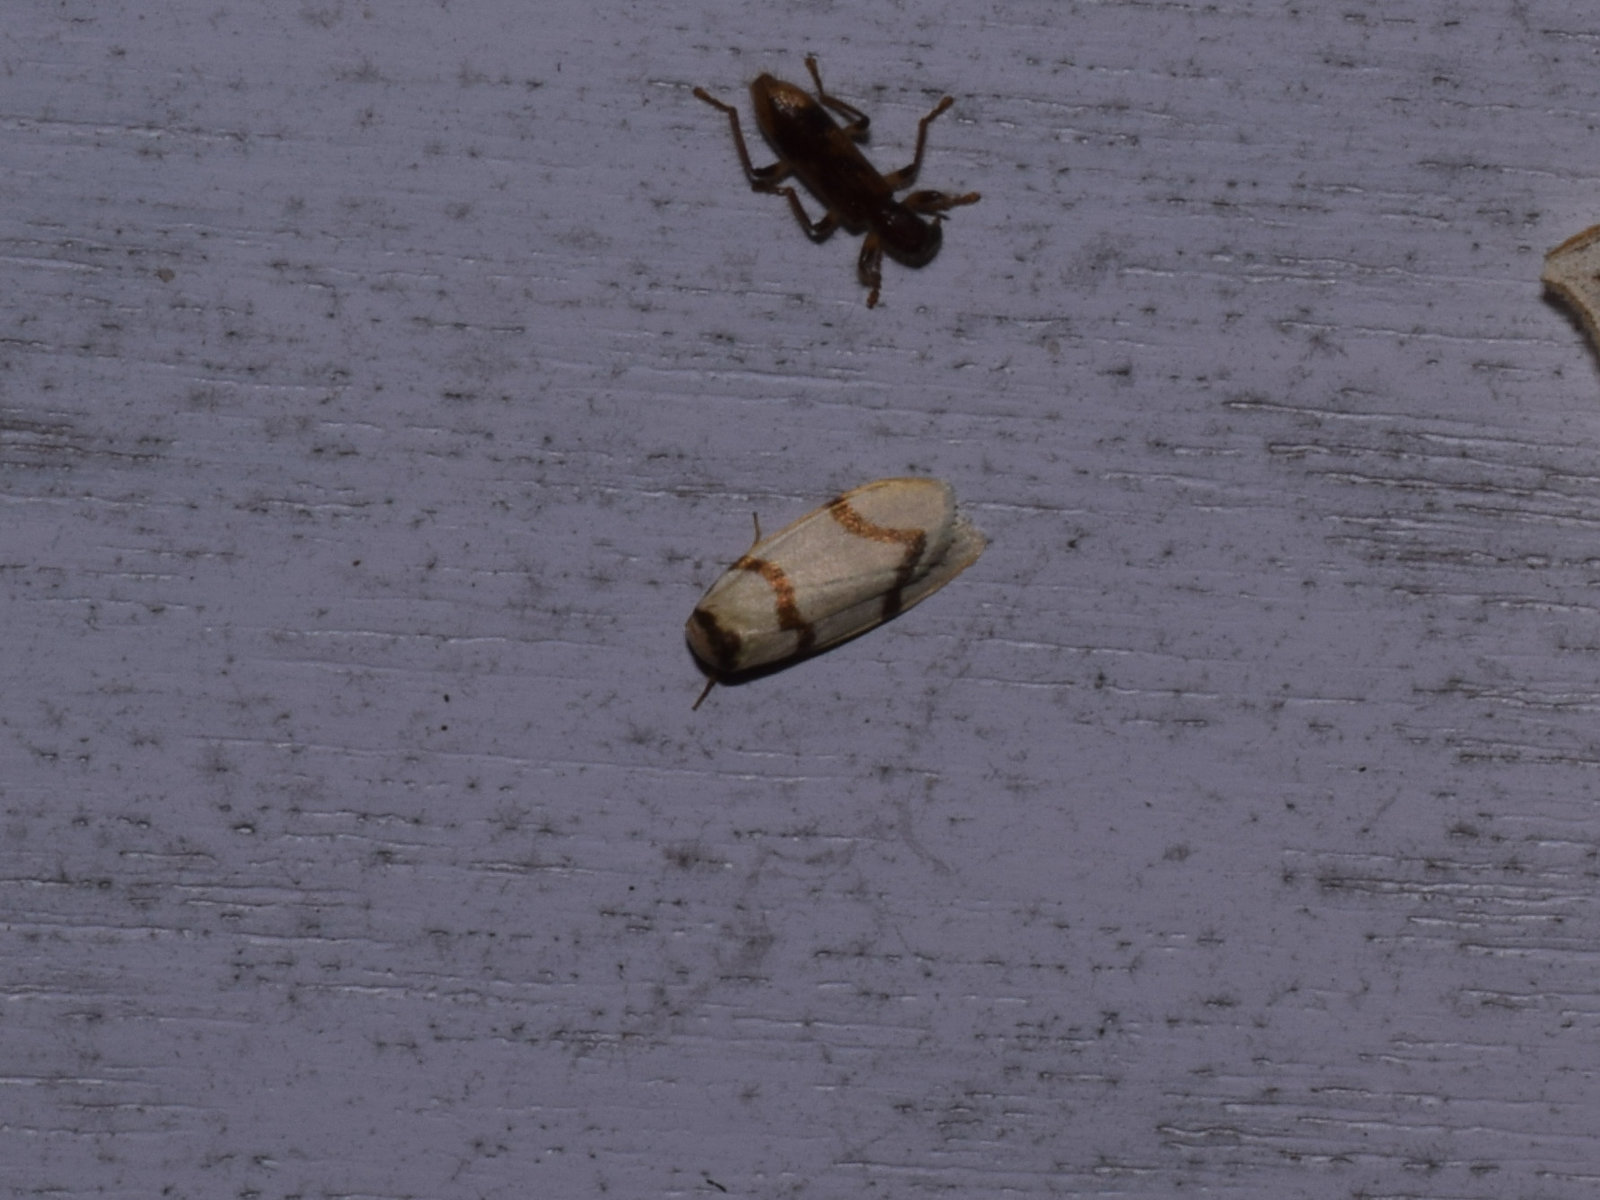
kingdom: Animalia
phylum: Arthropoda
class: Insecta
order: Lepidoptera
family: Erebidae
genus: Padenia
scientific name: Padenia duplicana
